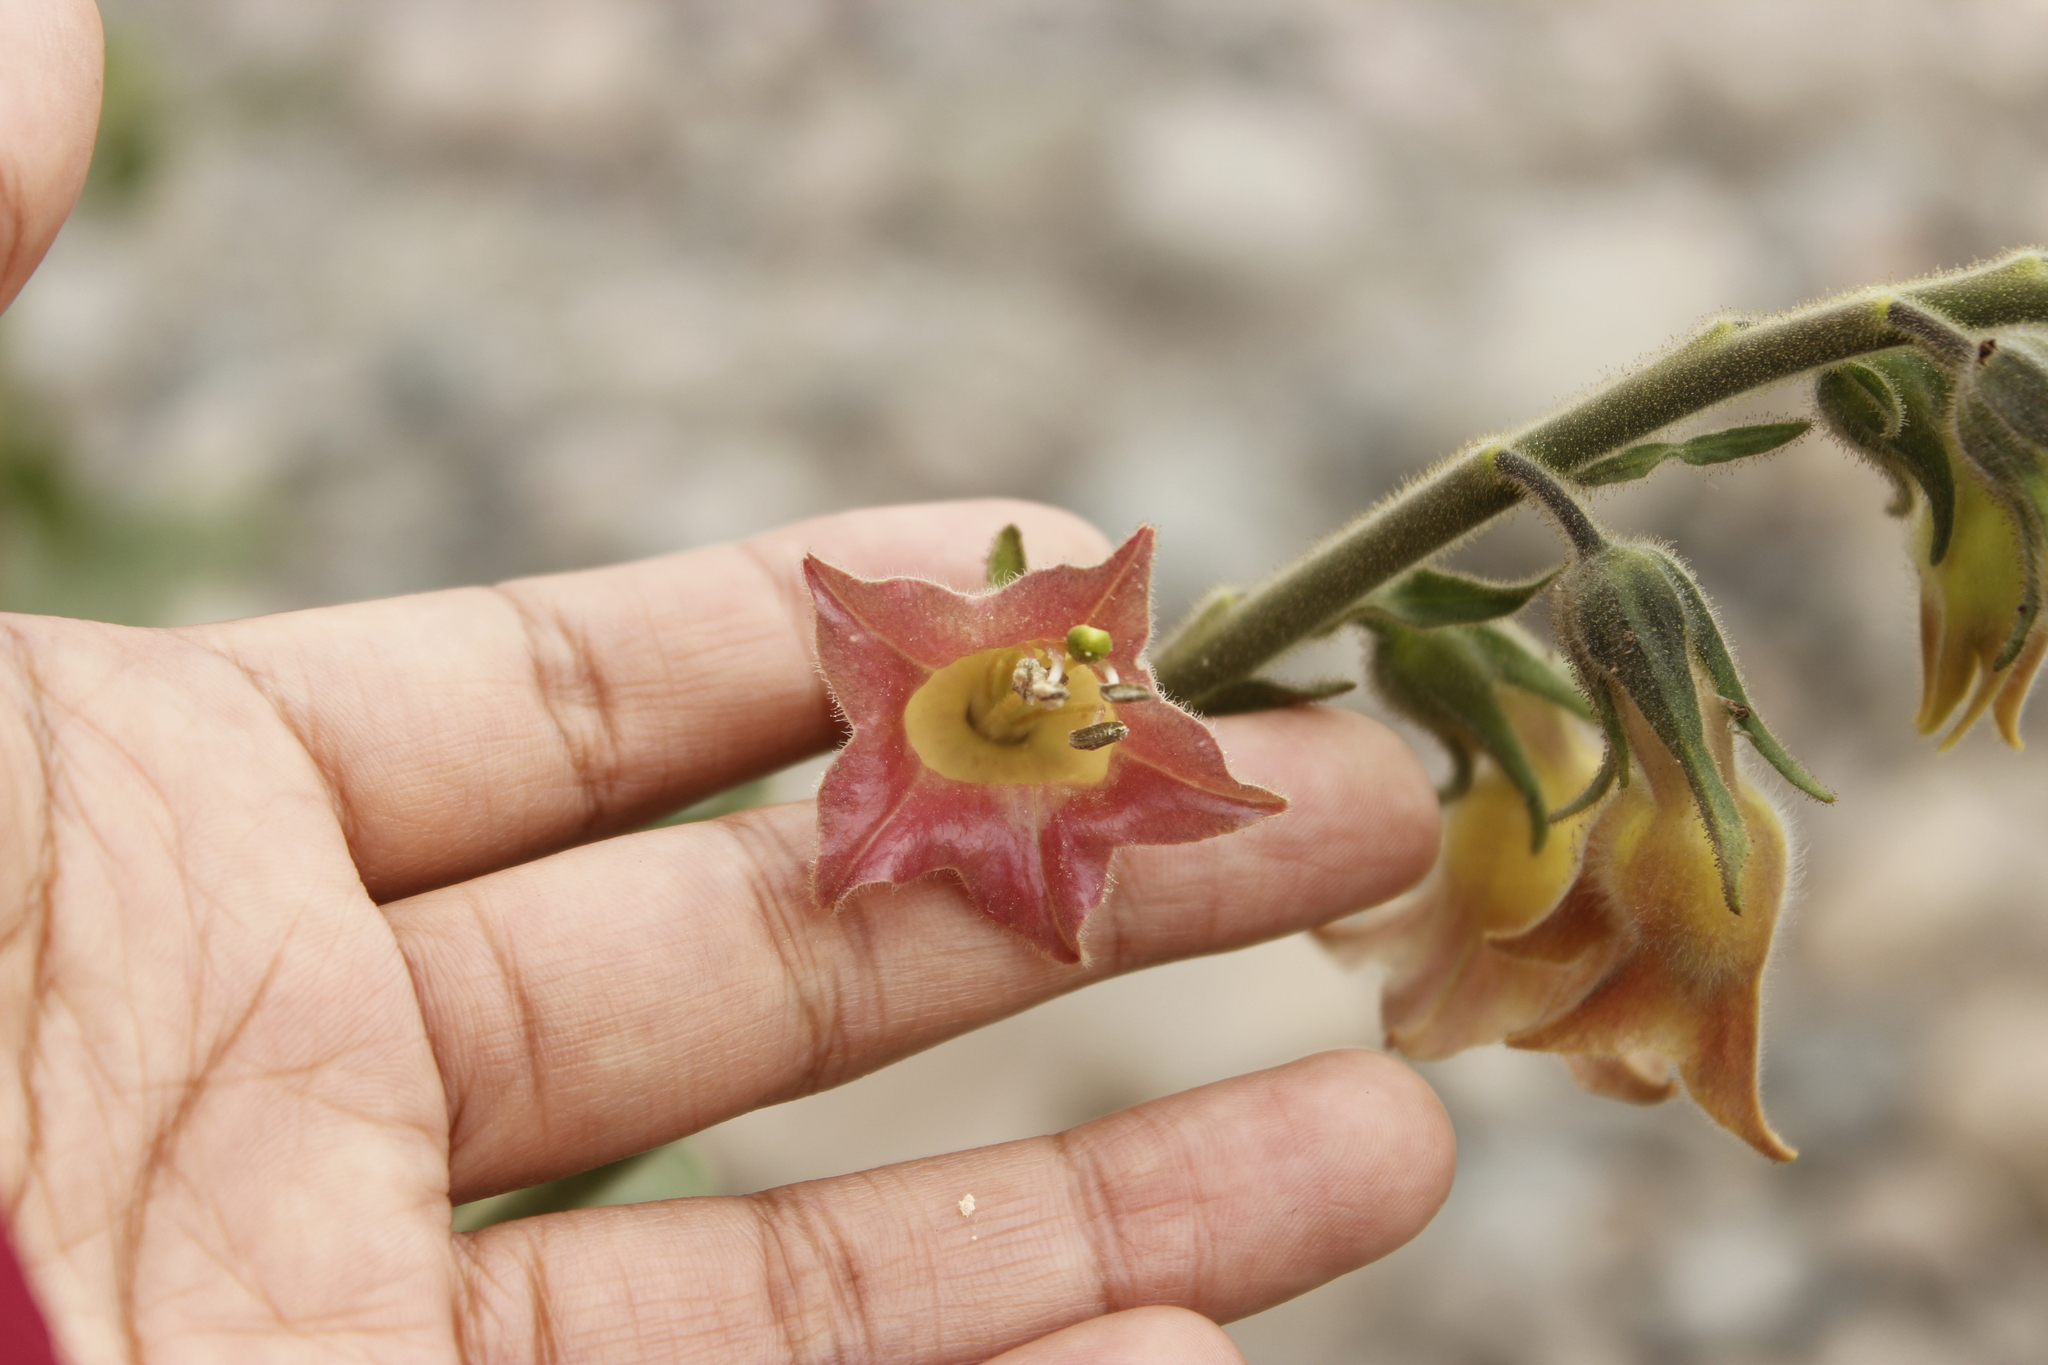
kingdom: Plantae
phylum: Tracheophyta
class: Magnoliopsida
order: Solanales
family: Solanaceae
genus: Nicotiana
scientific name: Nicotiana glutinosa
